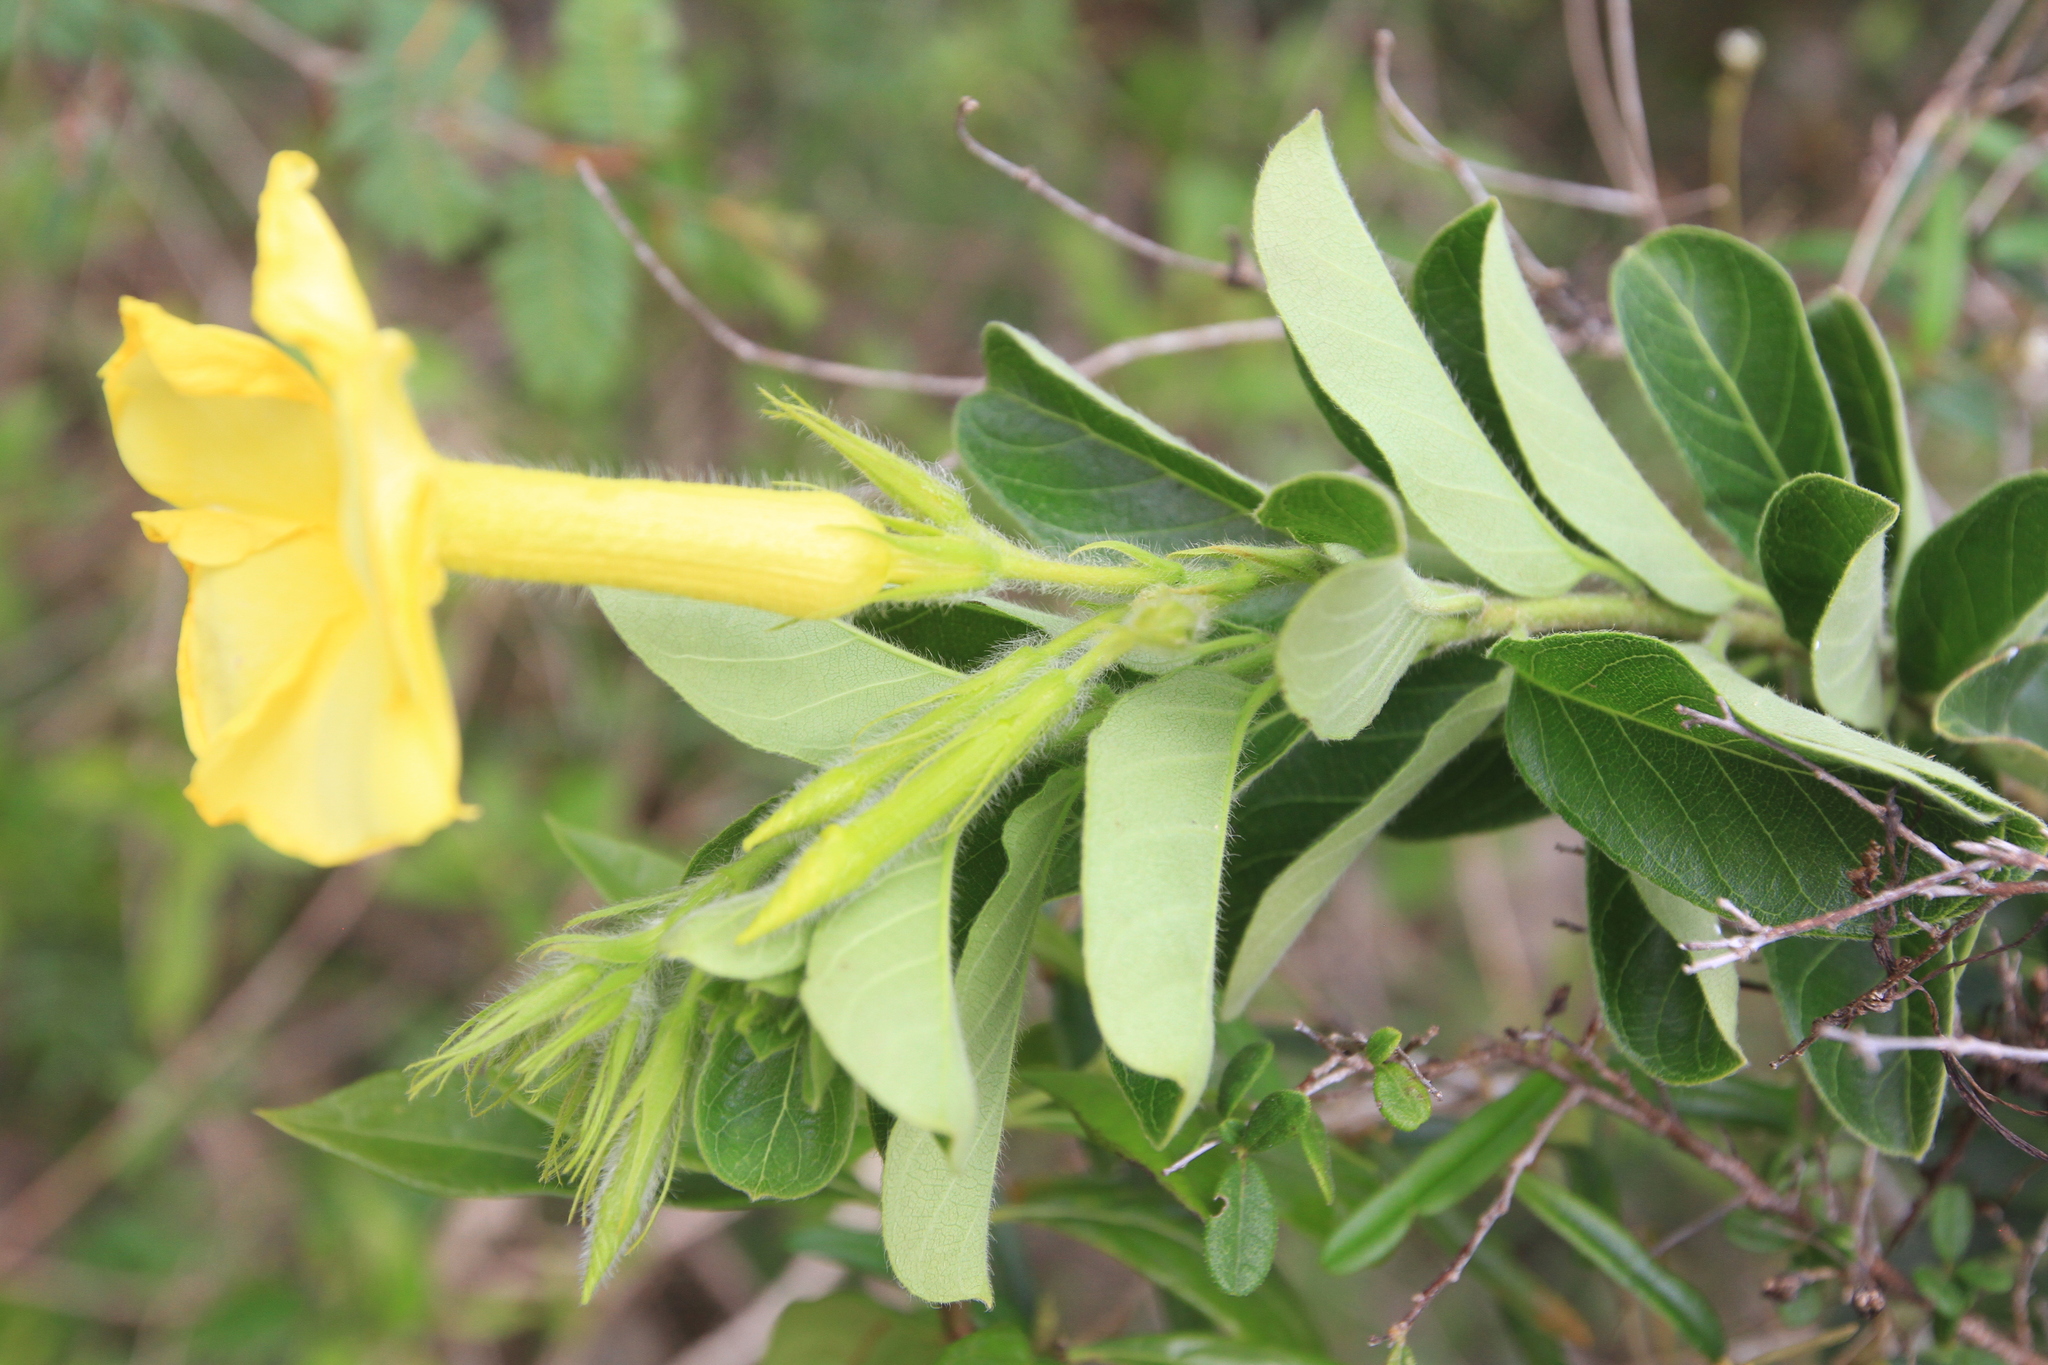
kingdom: Plantae
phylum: Tracheophyta
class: Magnoliopsida
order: Gentianales
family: Apocynaceae
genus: Pentalinon
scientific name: Pentalinon luteum
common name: Licebush
